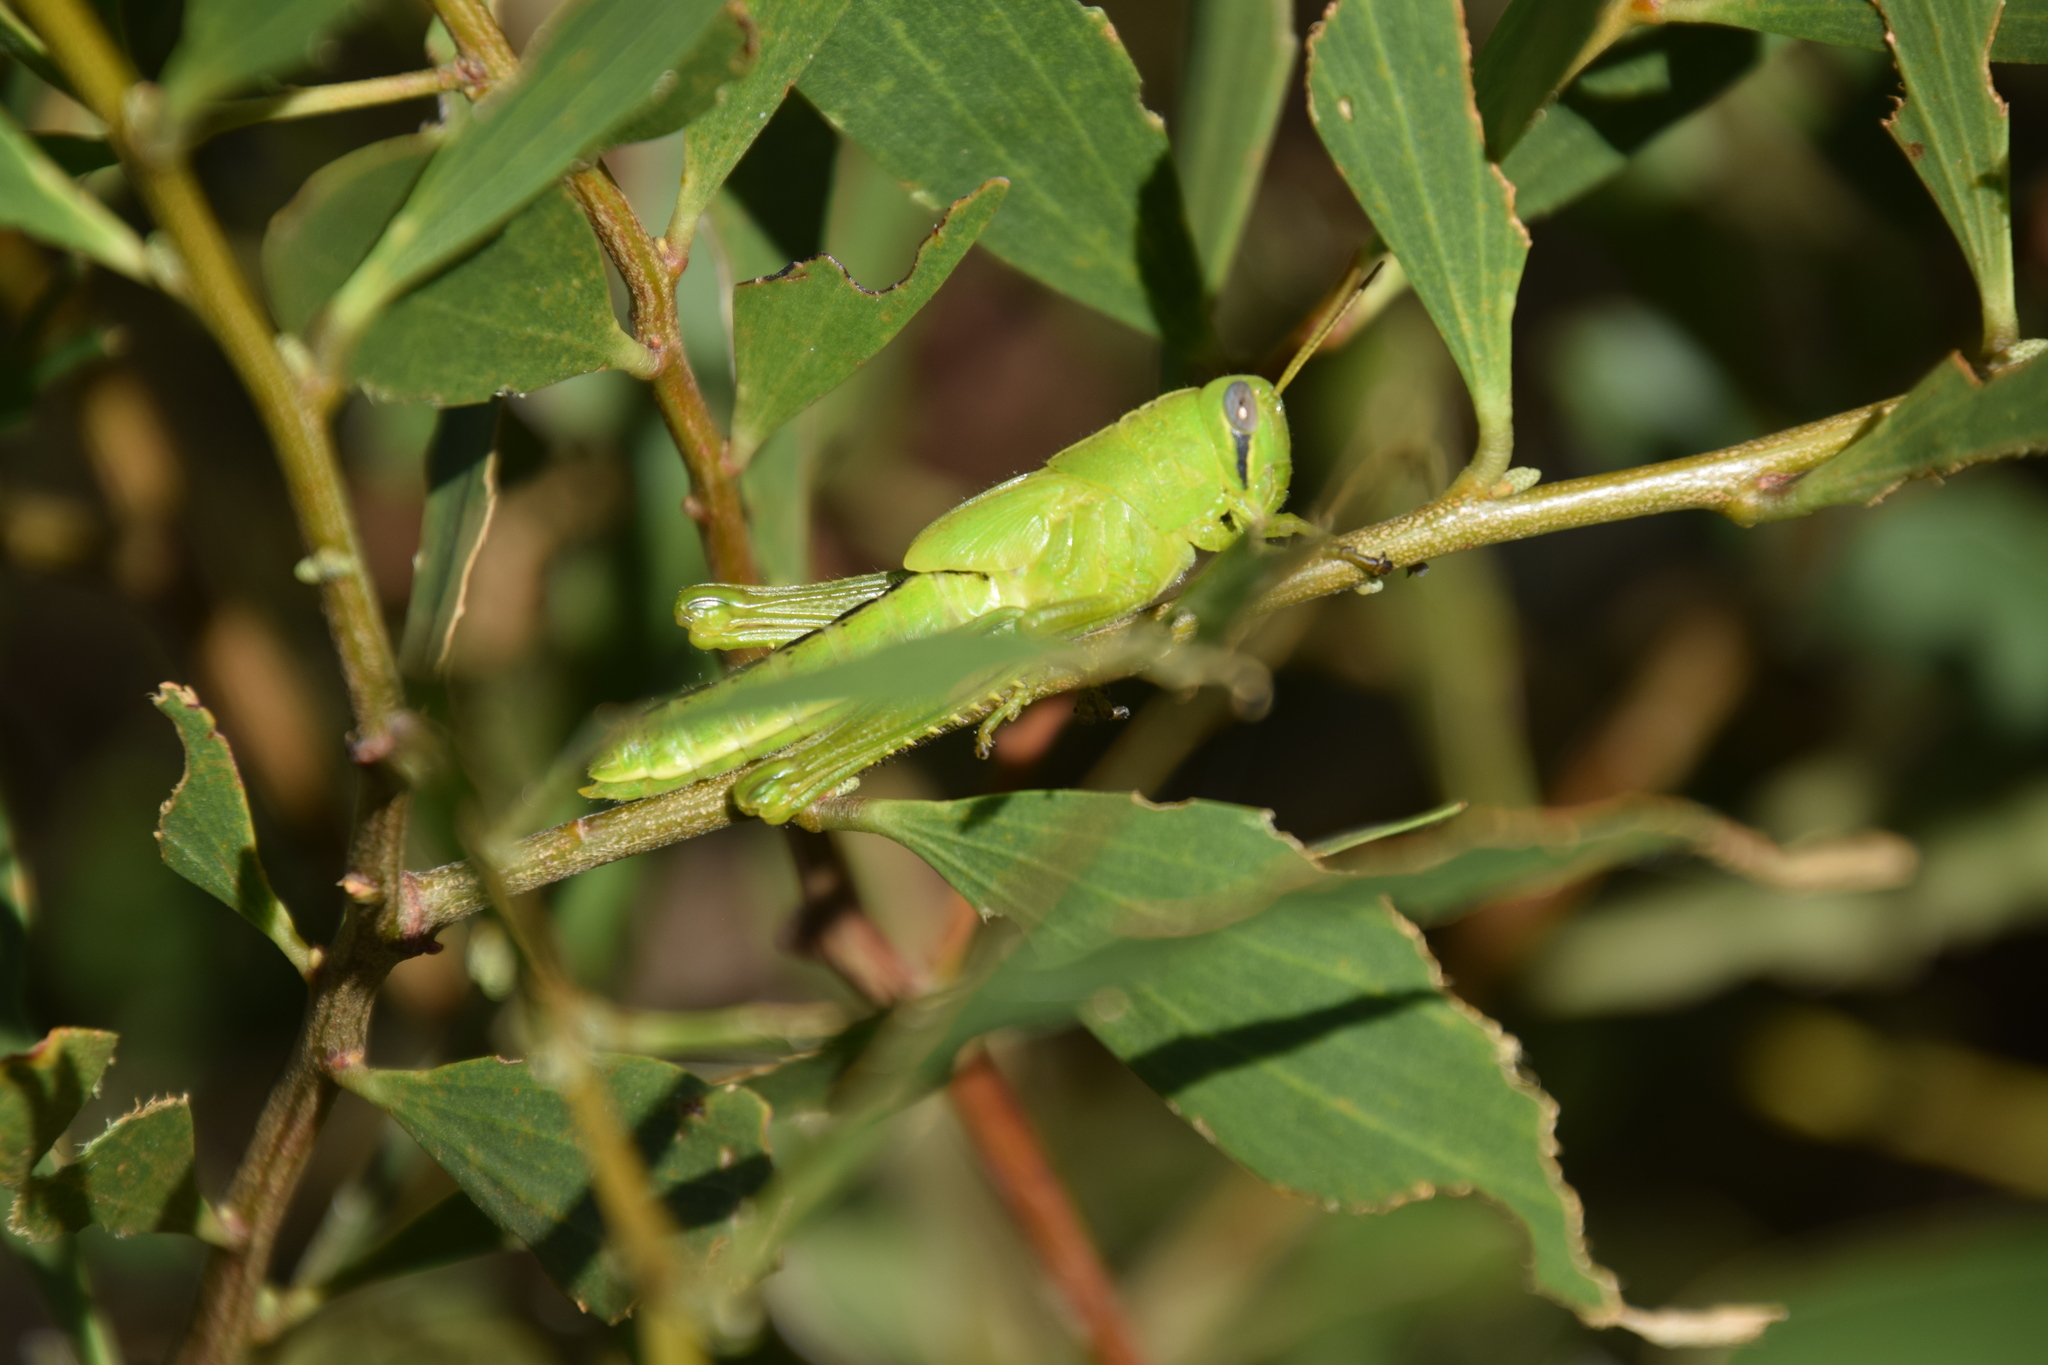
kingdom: Animalia
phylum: Arthropoda
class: Insecta
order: Orthoptera
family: Acrididae
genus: Austracris
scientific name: Austracris guttulosa
